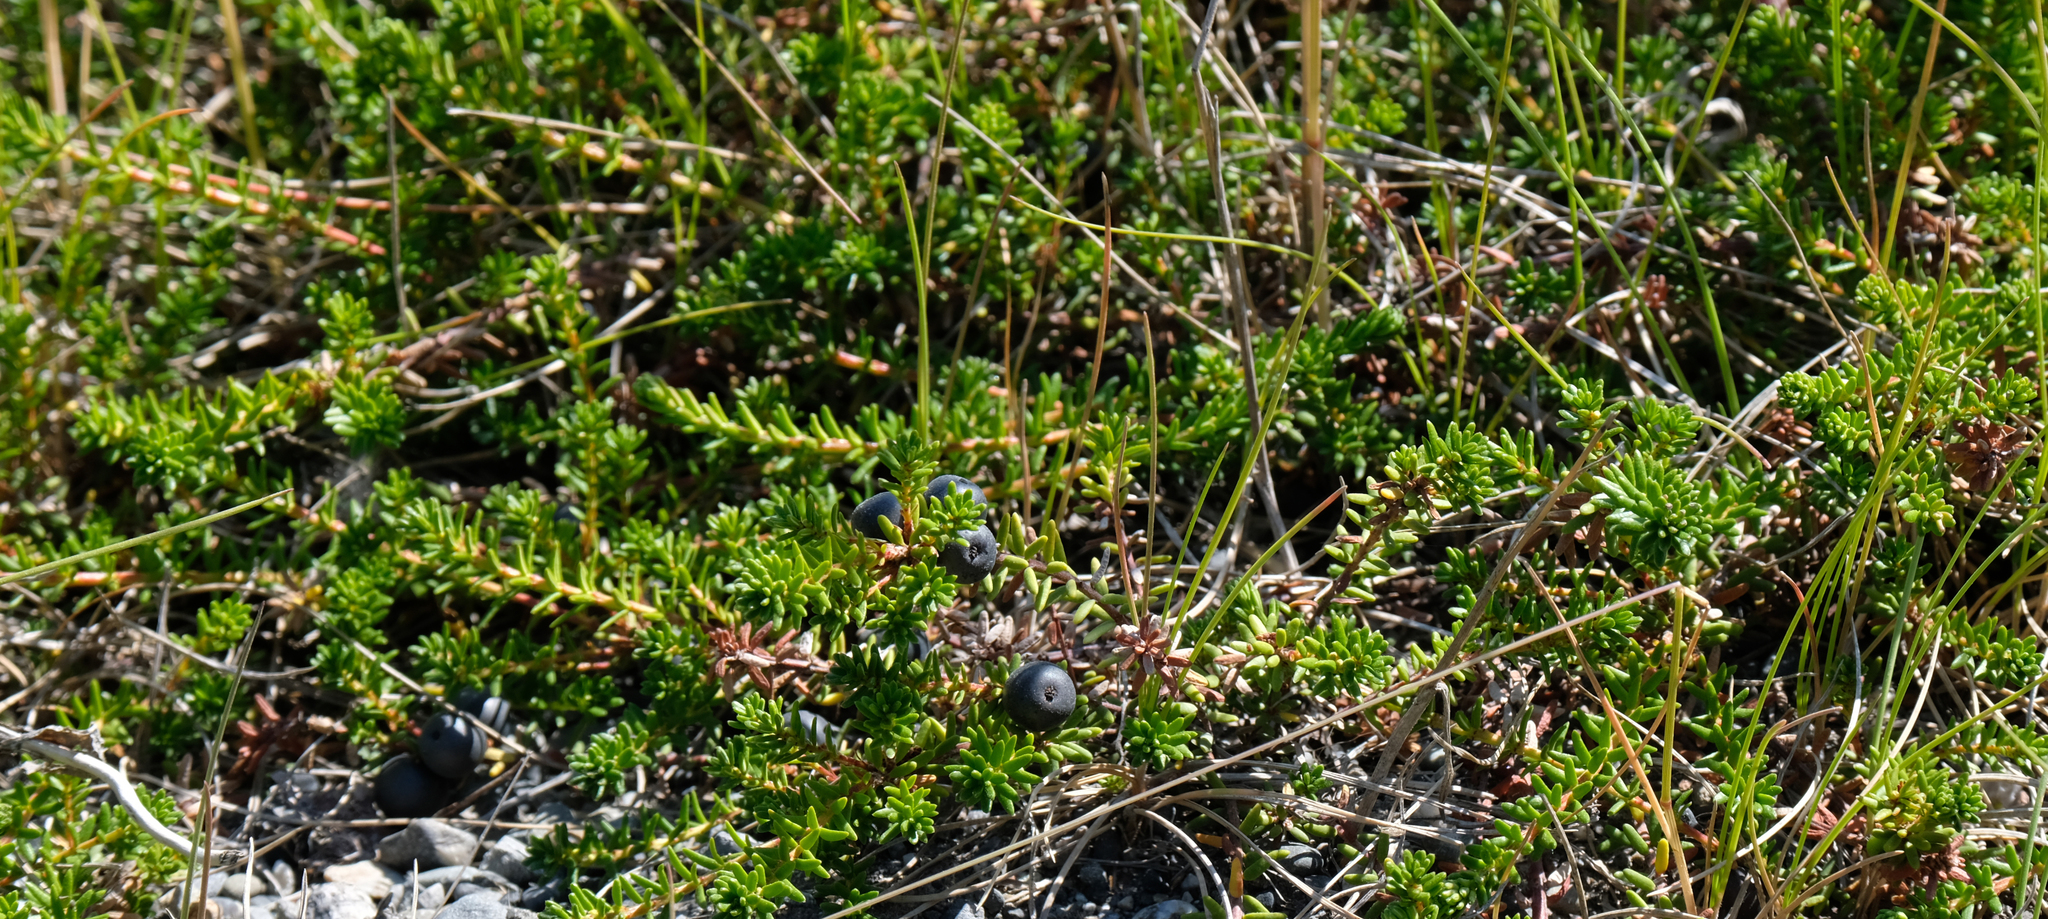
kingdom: Plantae
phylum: Tracheophyta
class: Magnoliopsida
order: Ericales
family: Ericaceae
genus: Empetrum
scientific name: Empetrum nigrum
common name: Black crowberry
